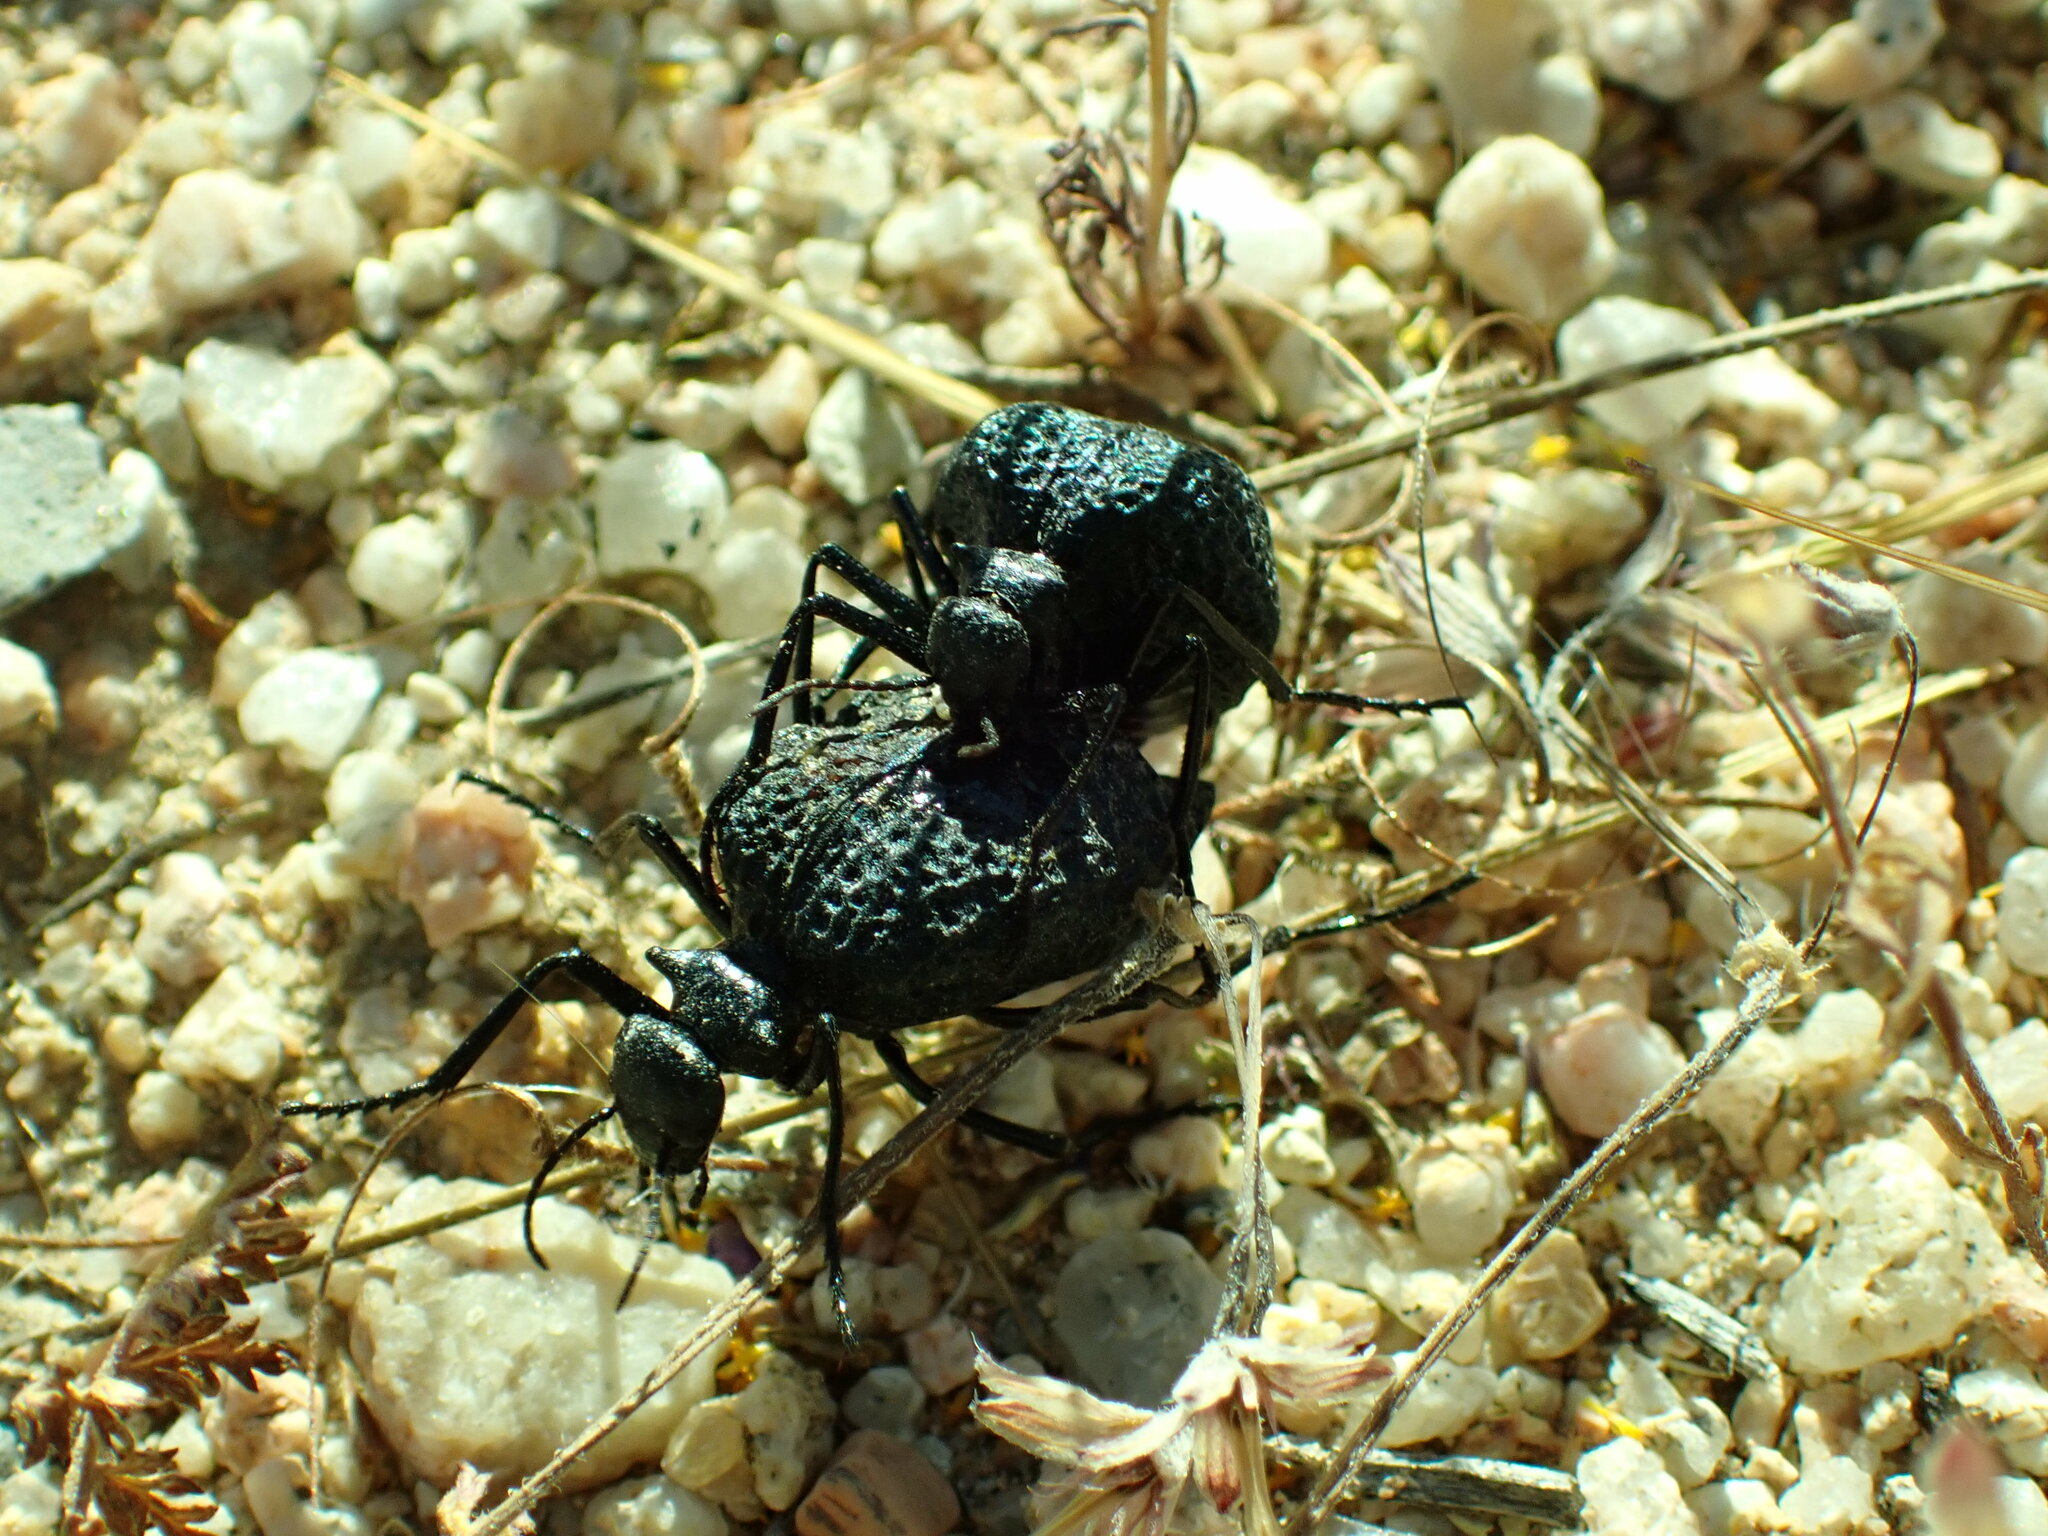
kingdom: Animalia
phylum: Arthropoda
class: Insecta
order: Coleoptera
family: Meloidae
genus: Cysteodemus
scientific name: Cysteodemus armatus
